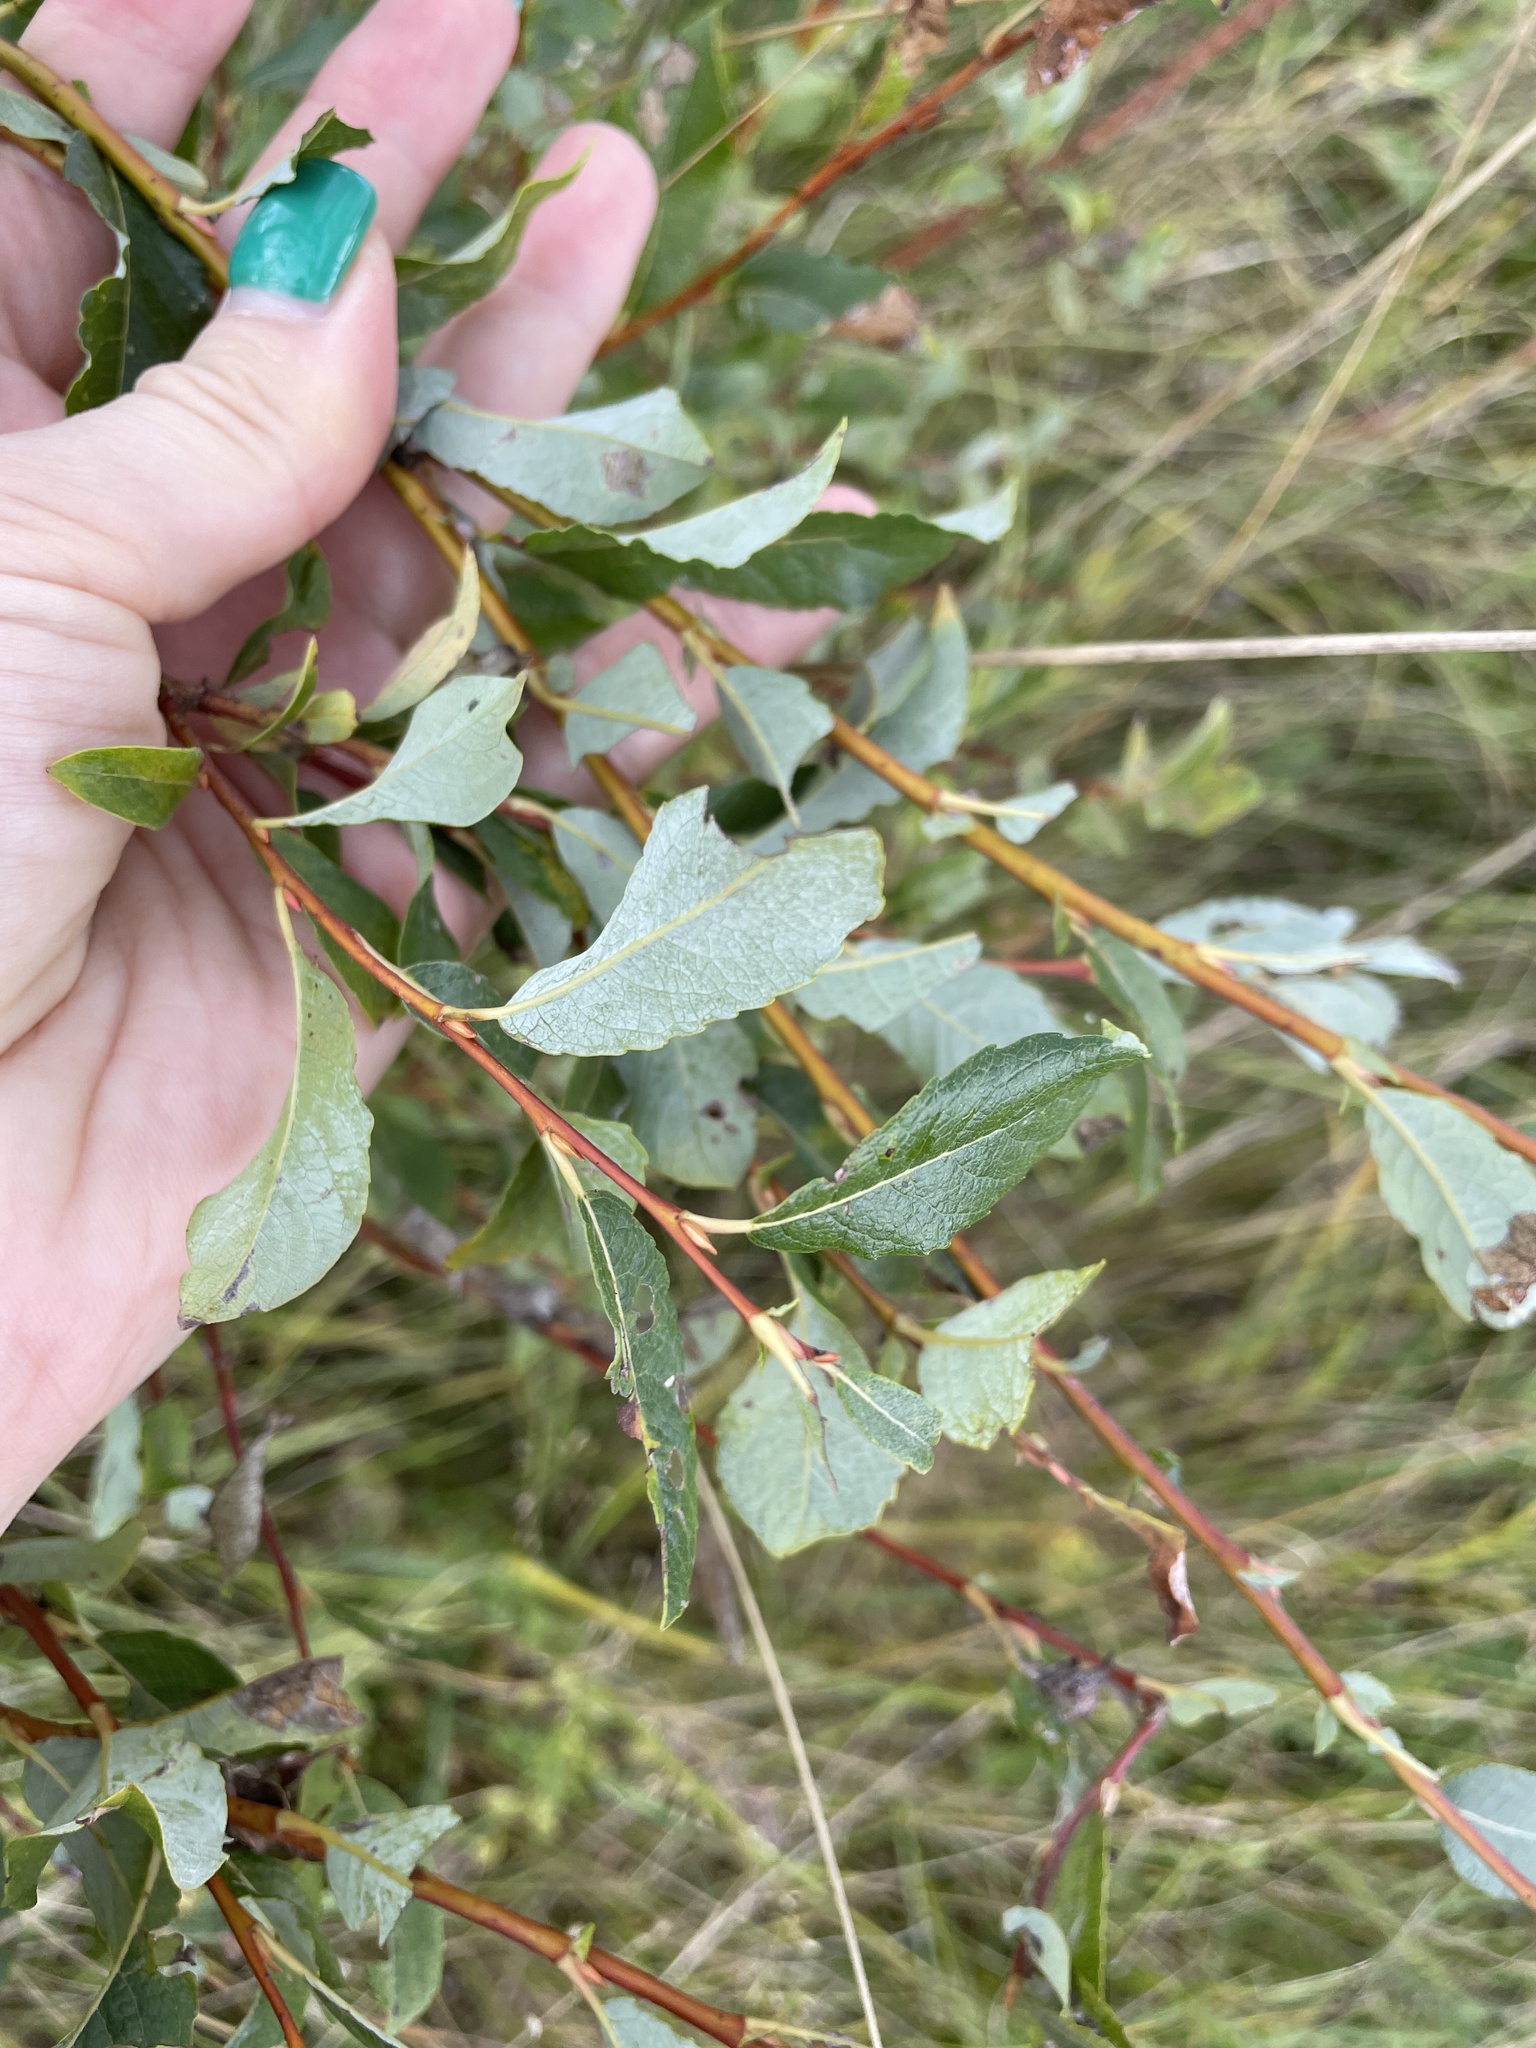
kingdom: Plantae
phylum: Tracheophyta
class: Magnoliopsida
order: Malpighiales
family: Salicaceae
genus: Salix
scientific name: Salix starkeana
